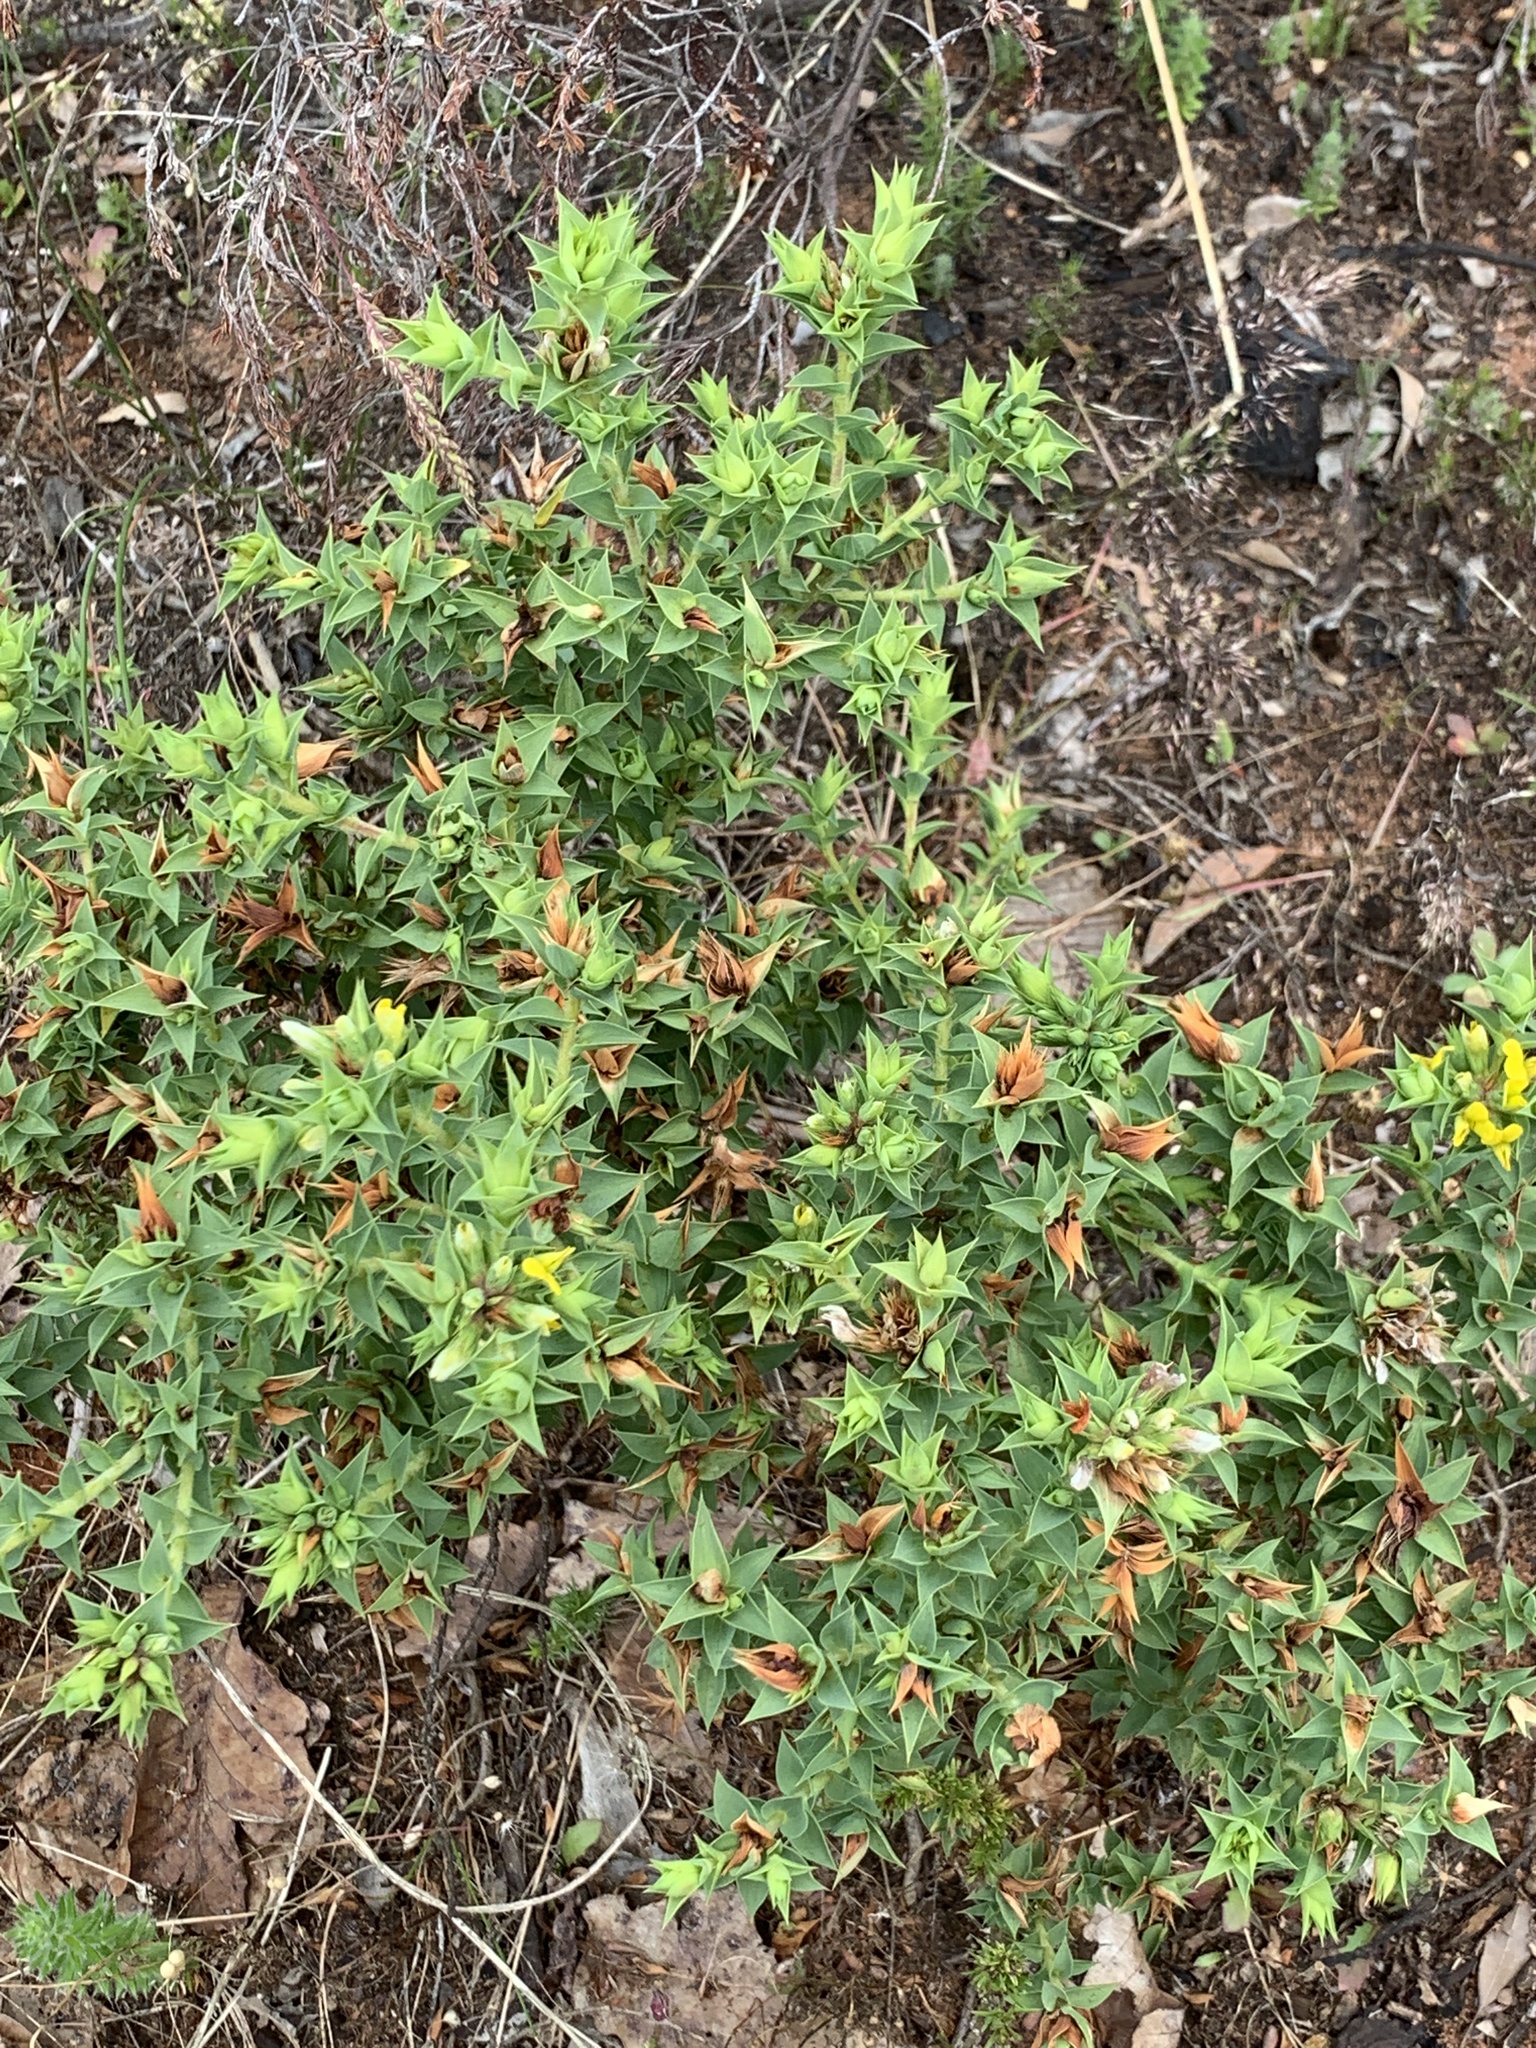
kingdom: Plantae
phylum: Tracheophyta
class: Magnoliopsida
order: Fabales
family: Fabaceae
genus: Aspalathus
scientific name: Aspalathus cordata
